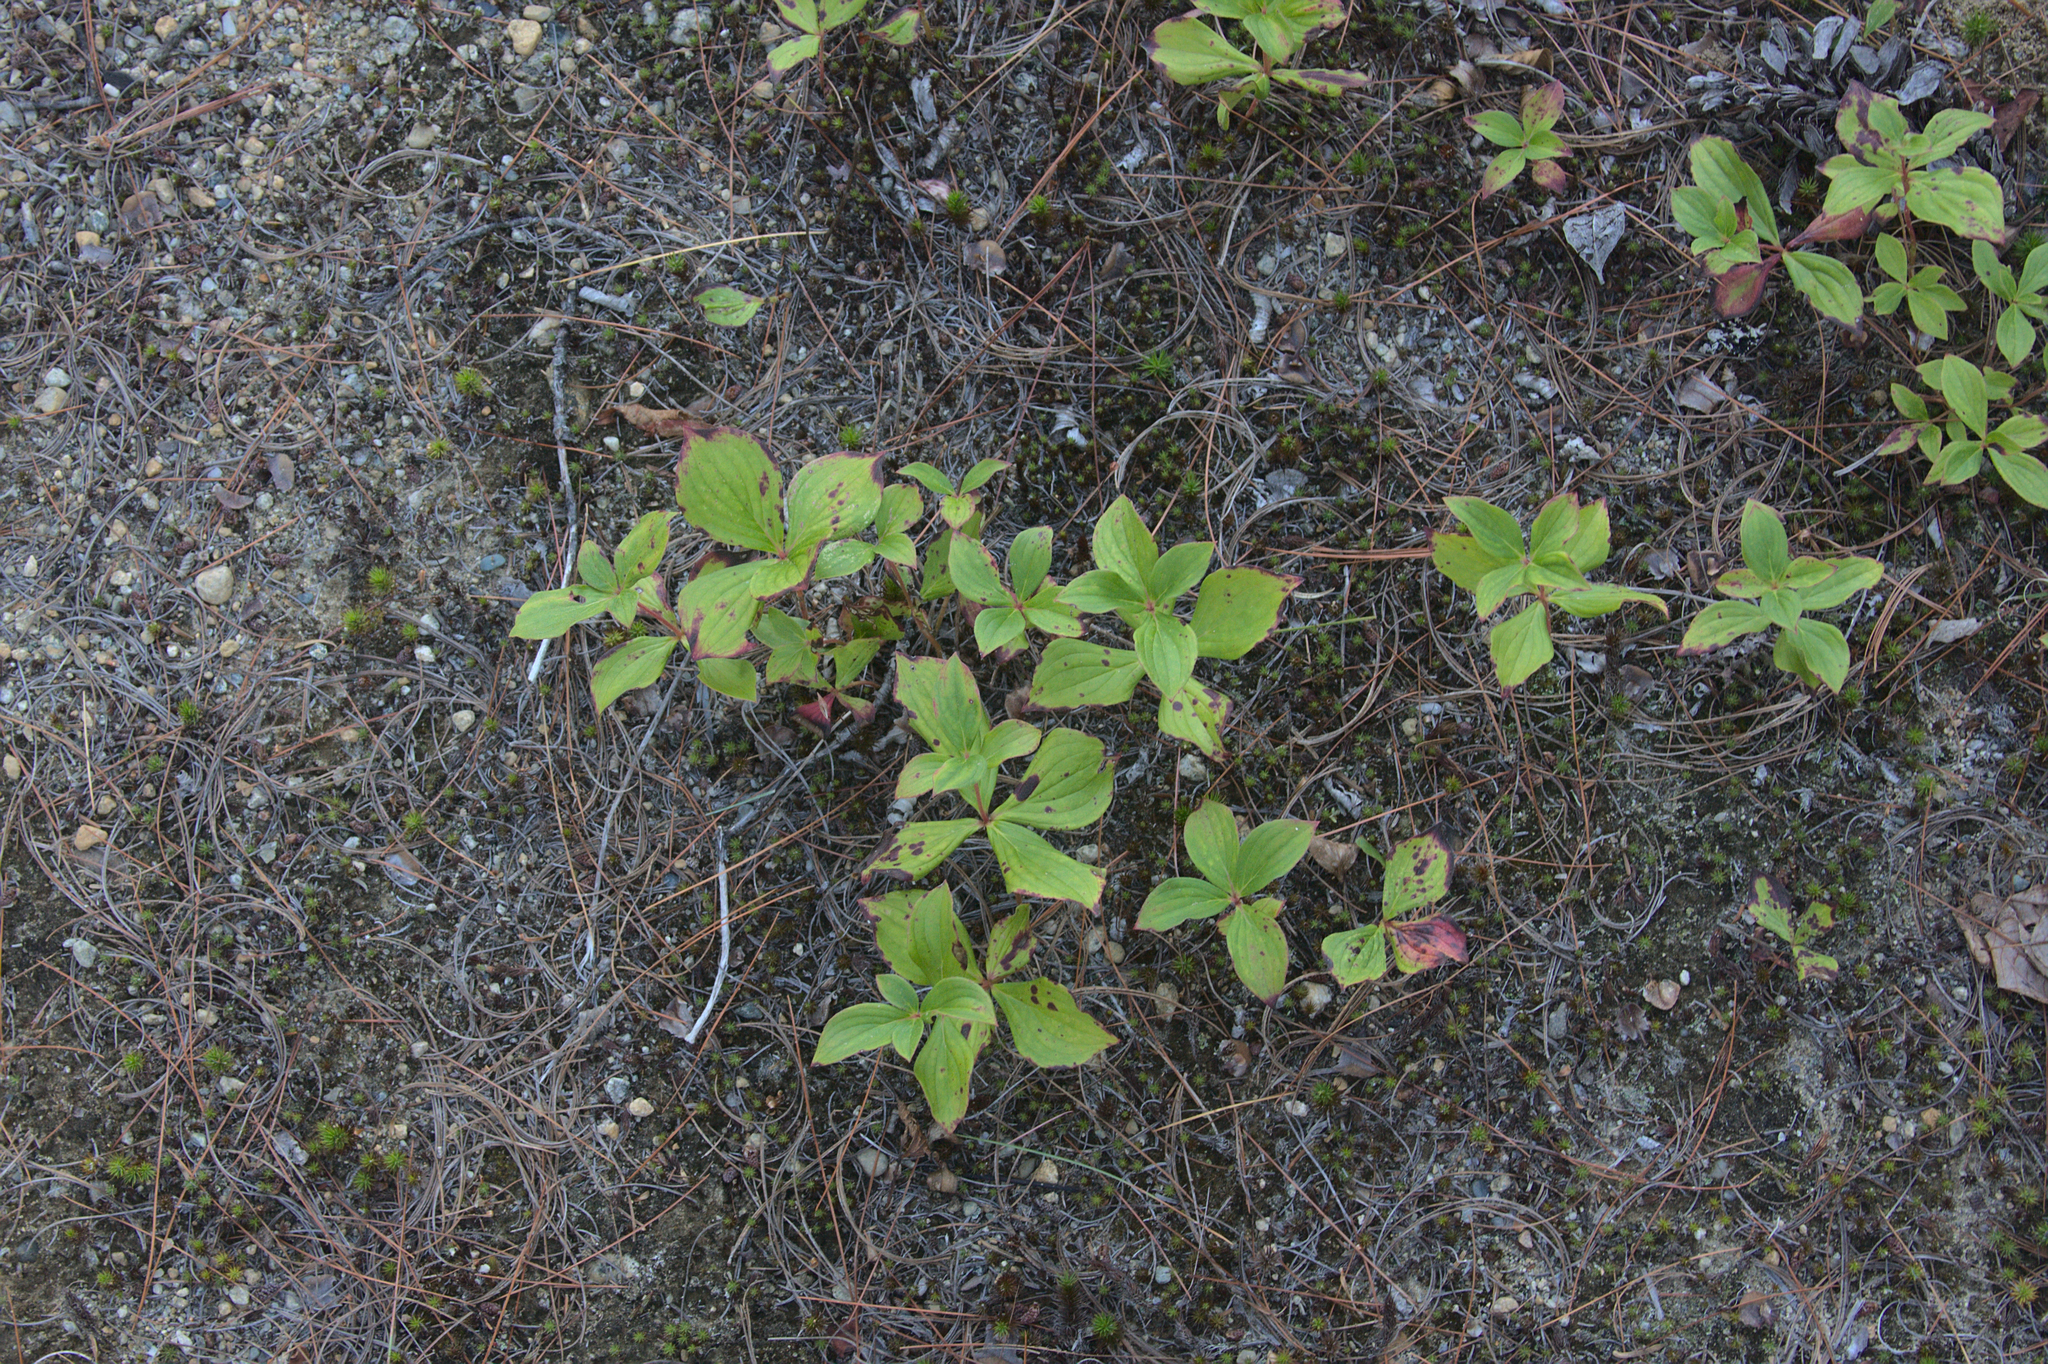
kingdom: Plantae
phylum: Tracheophyta
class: Magnoliopsida
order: Cornales
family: Cornaceae
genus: Cornus
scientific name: Cornus canadensis
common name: Creeping dogwood
